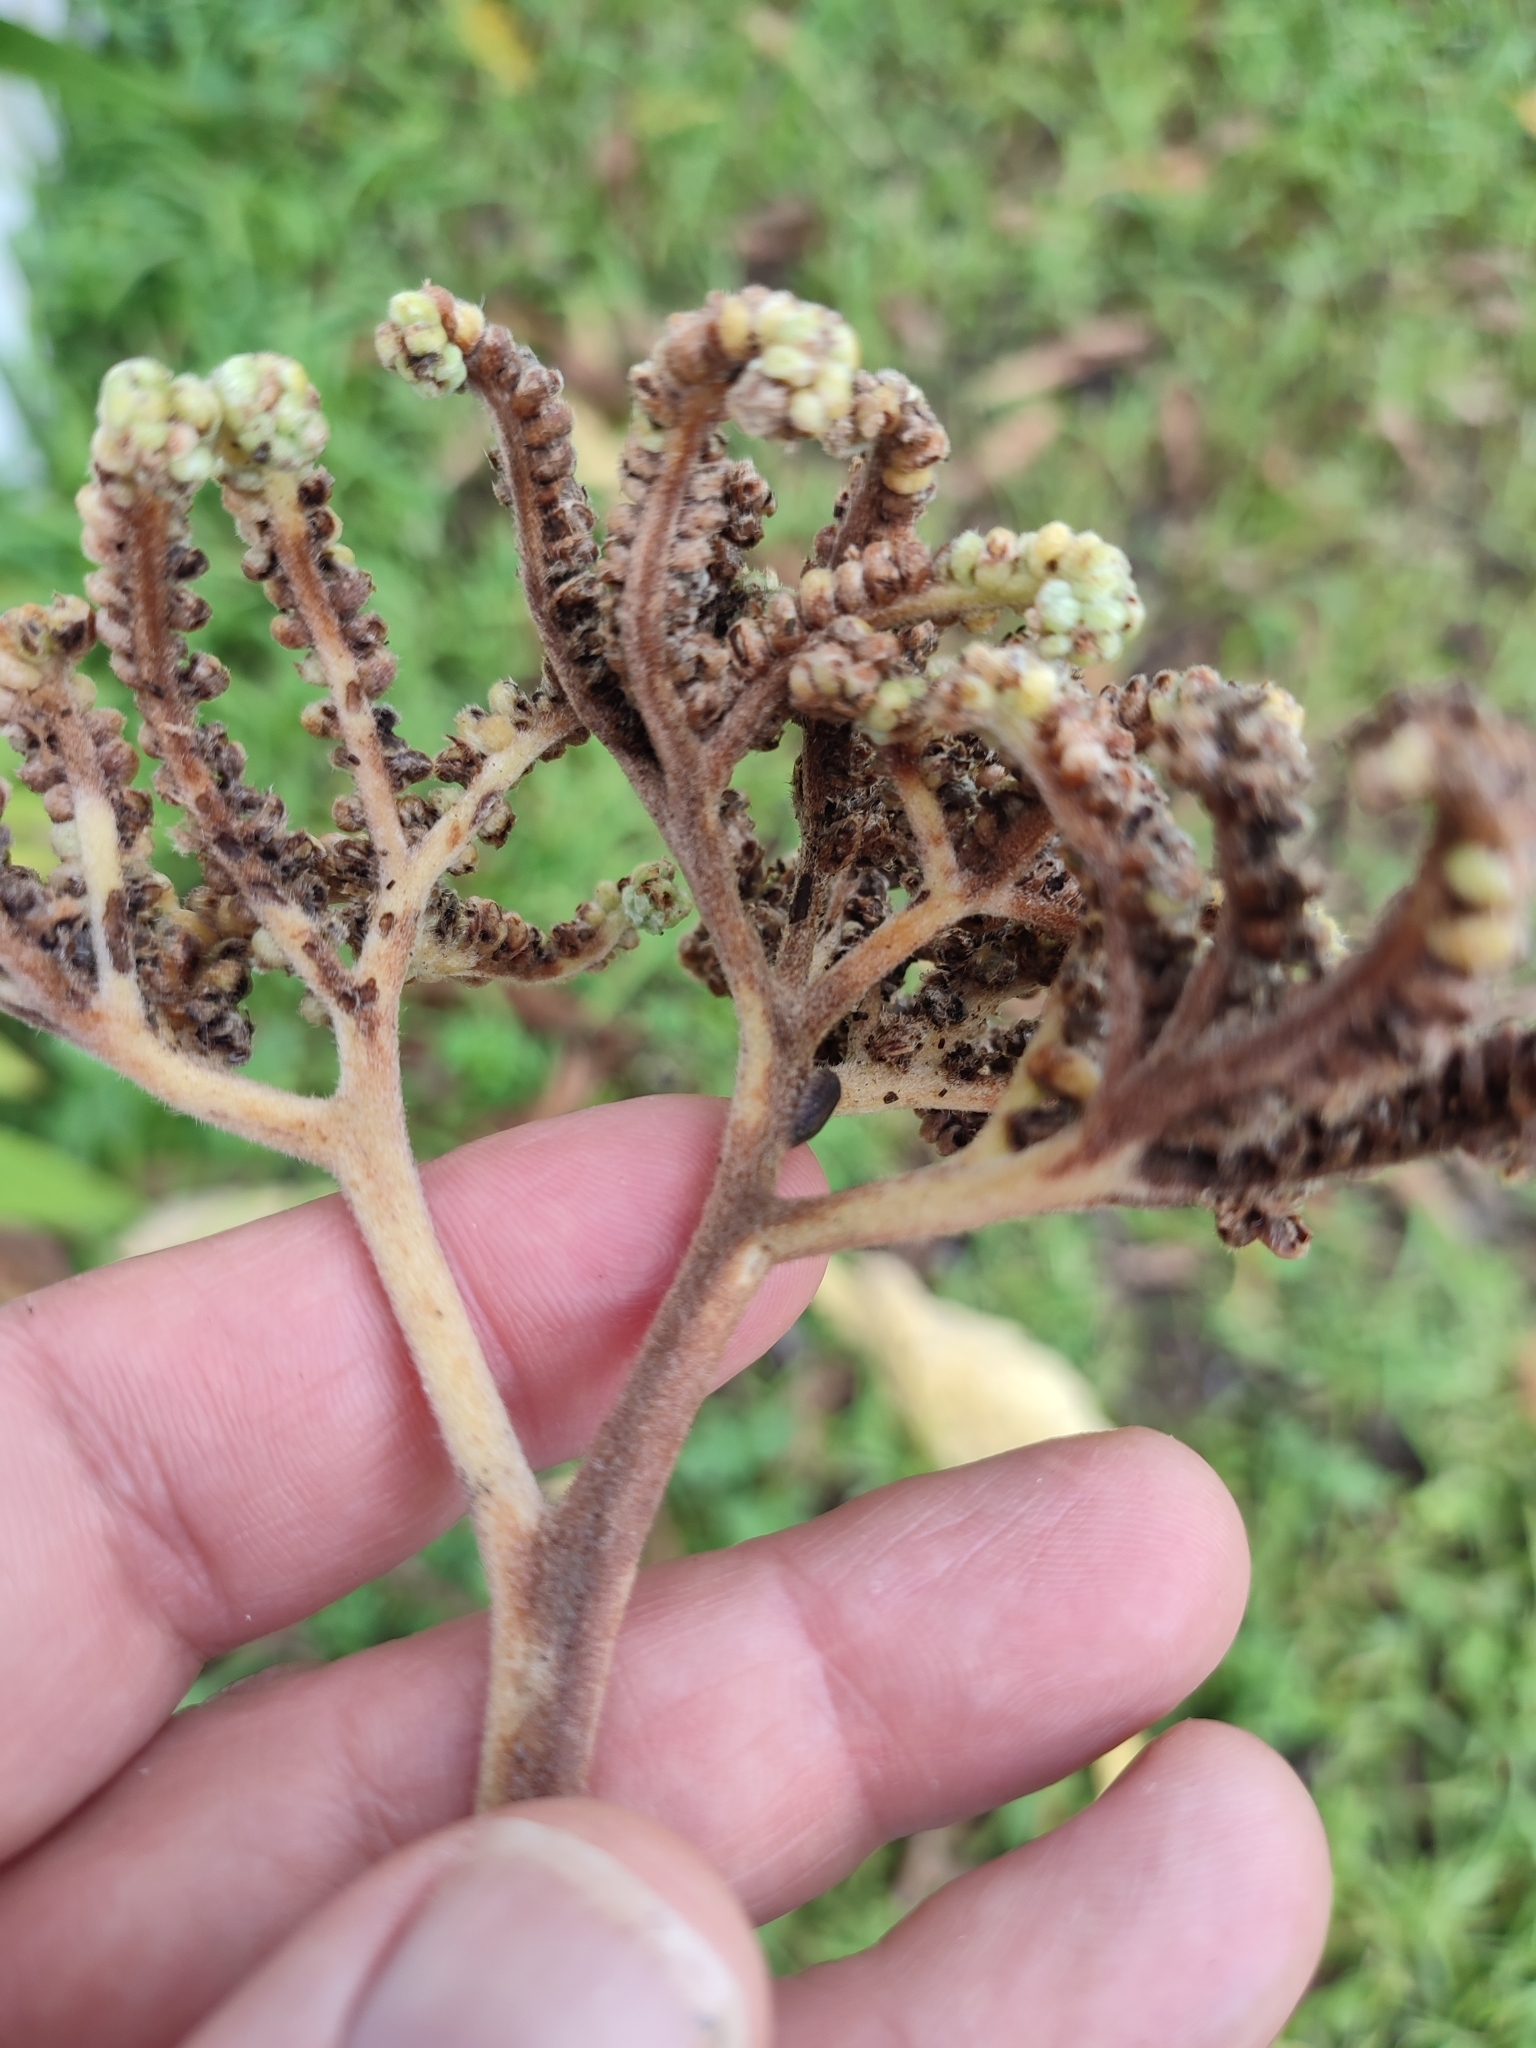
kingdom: Plantae
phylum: Tracheophyta
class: Magnoliopsida
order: Boraginales
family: Heliotropiaceae
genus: Heliotropium
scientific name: Heliotropium velutinum
